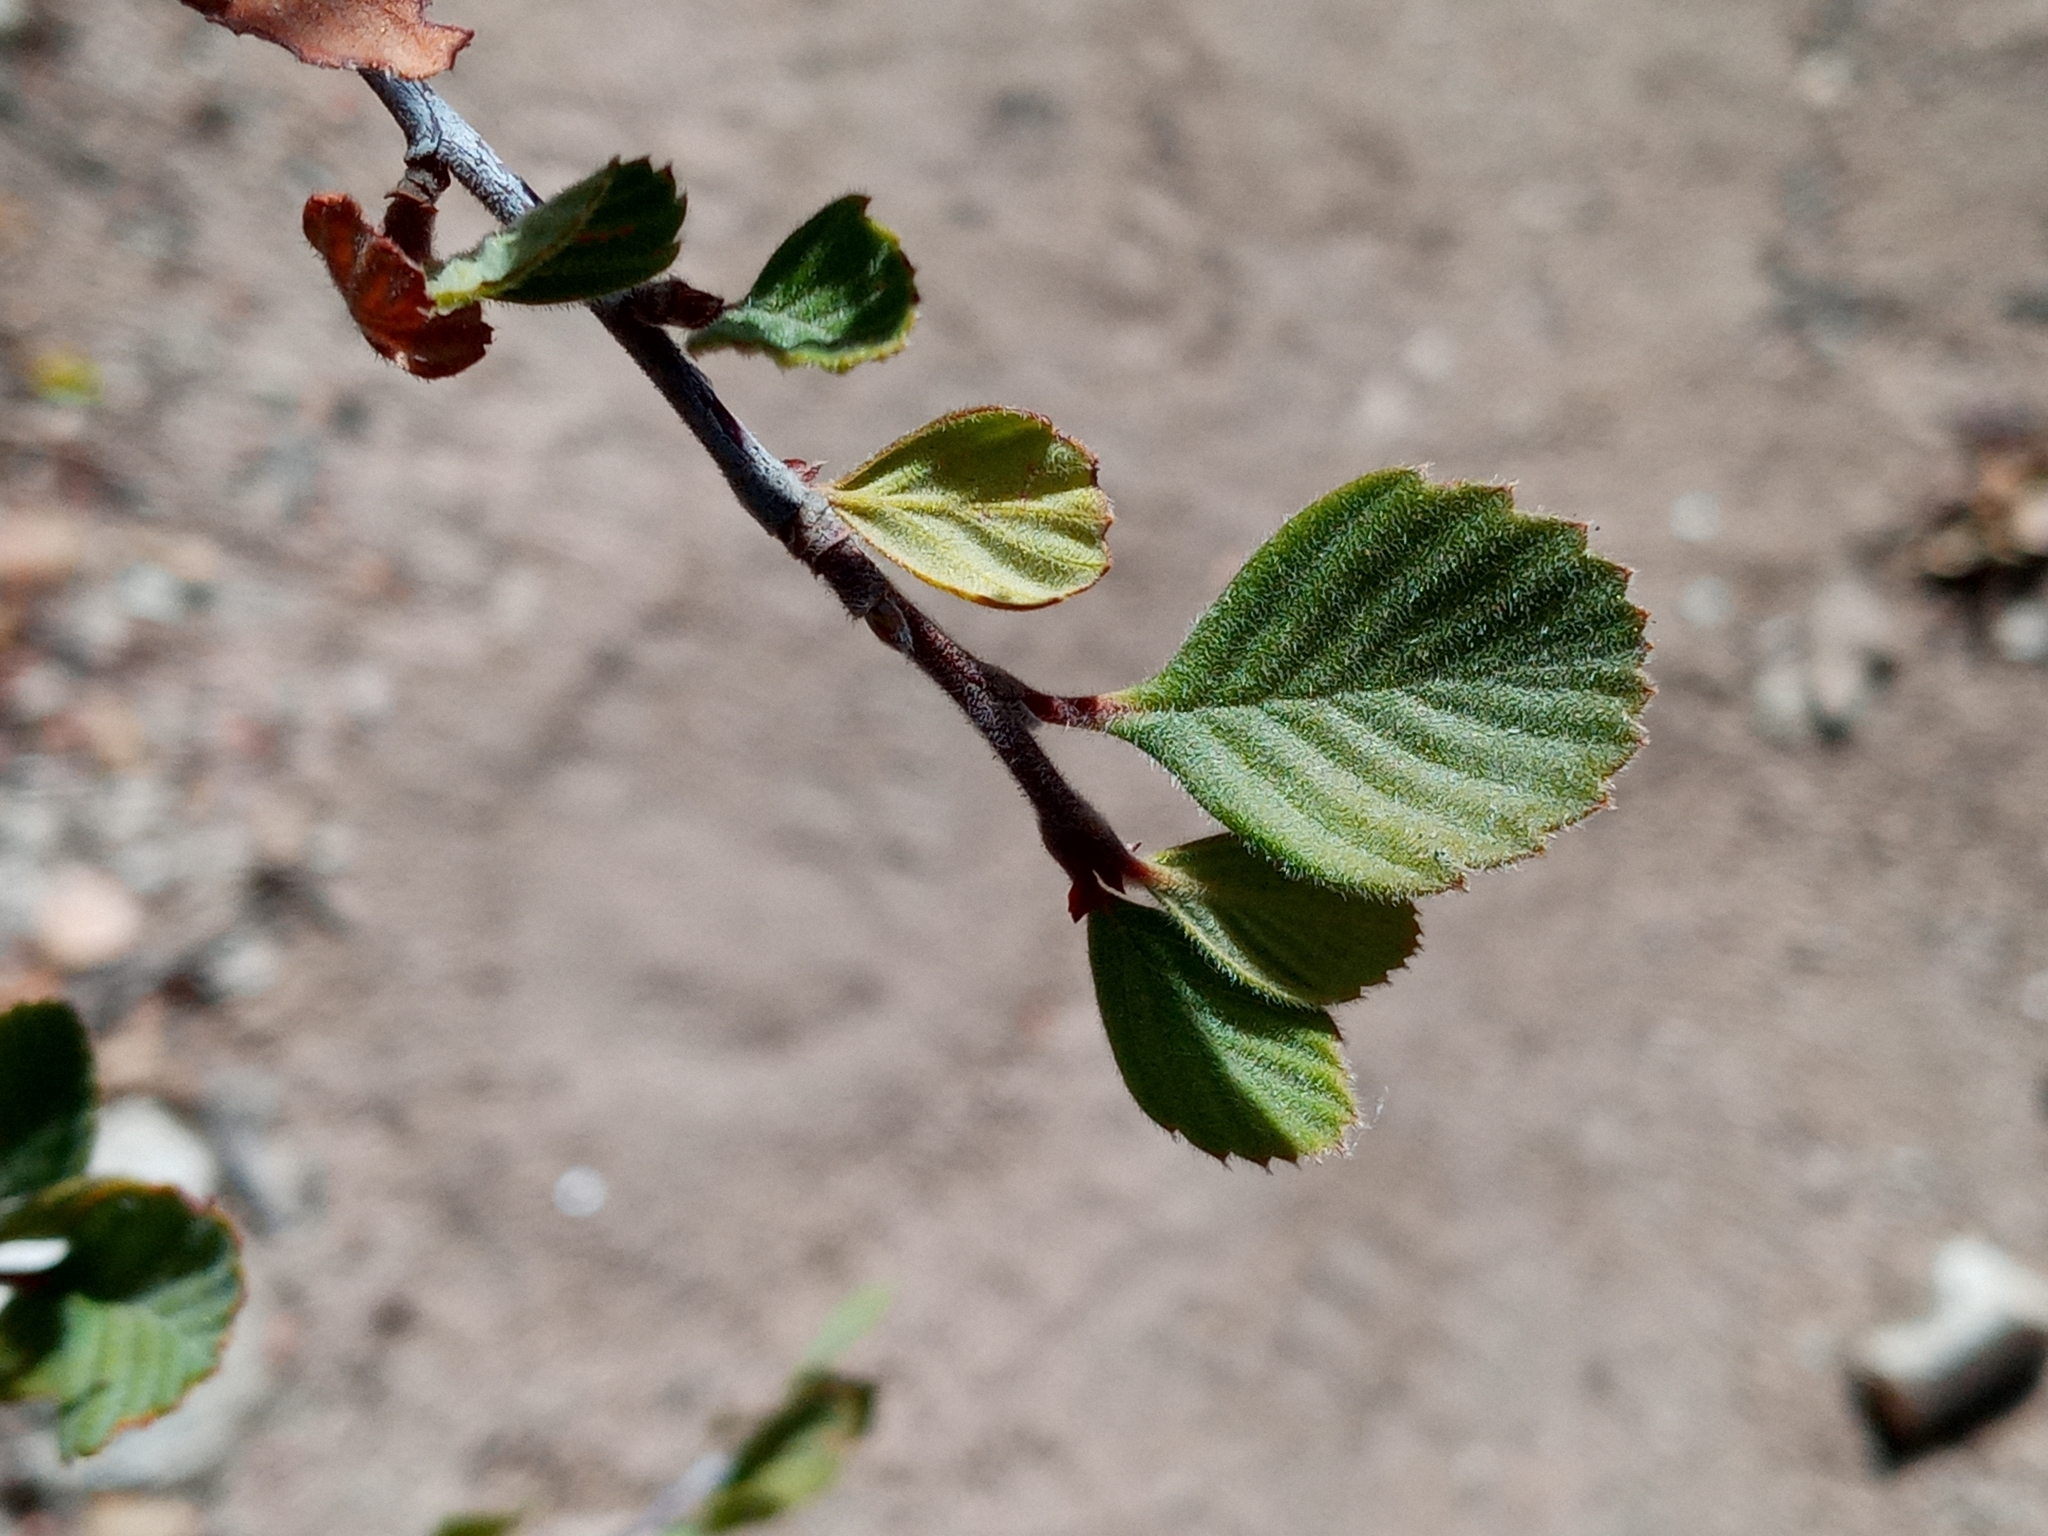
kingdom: Plantae
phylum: Tracheophyta
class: Magnoliopsida
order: Rosales
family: Rosaceae
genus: Cercocarpus
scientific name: Cercocarpus betuloides
